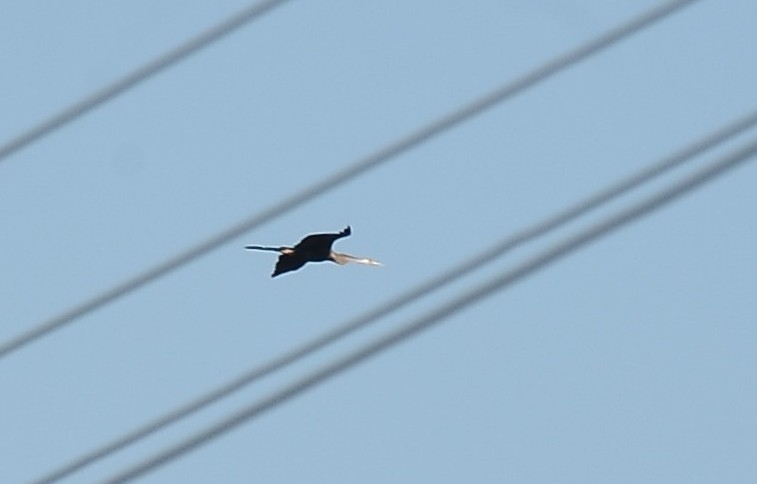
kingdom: Animalia
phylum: Chordata
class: Aves
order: Suliformes
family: Anhingidae
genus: Anhinga
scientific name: Anhinga melanogaster
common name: Oriental darter
